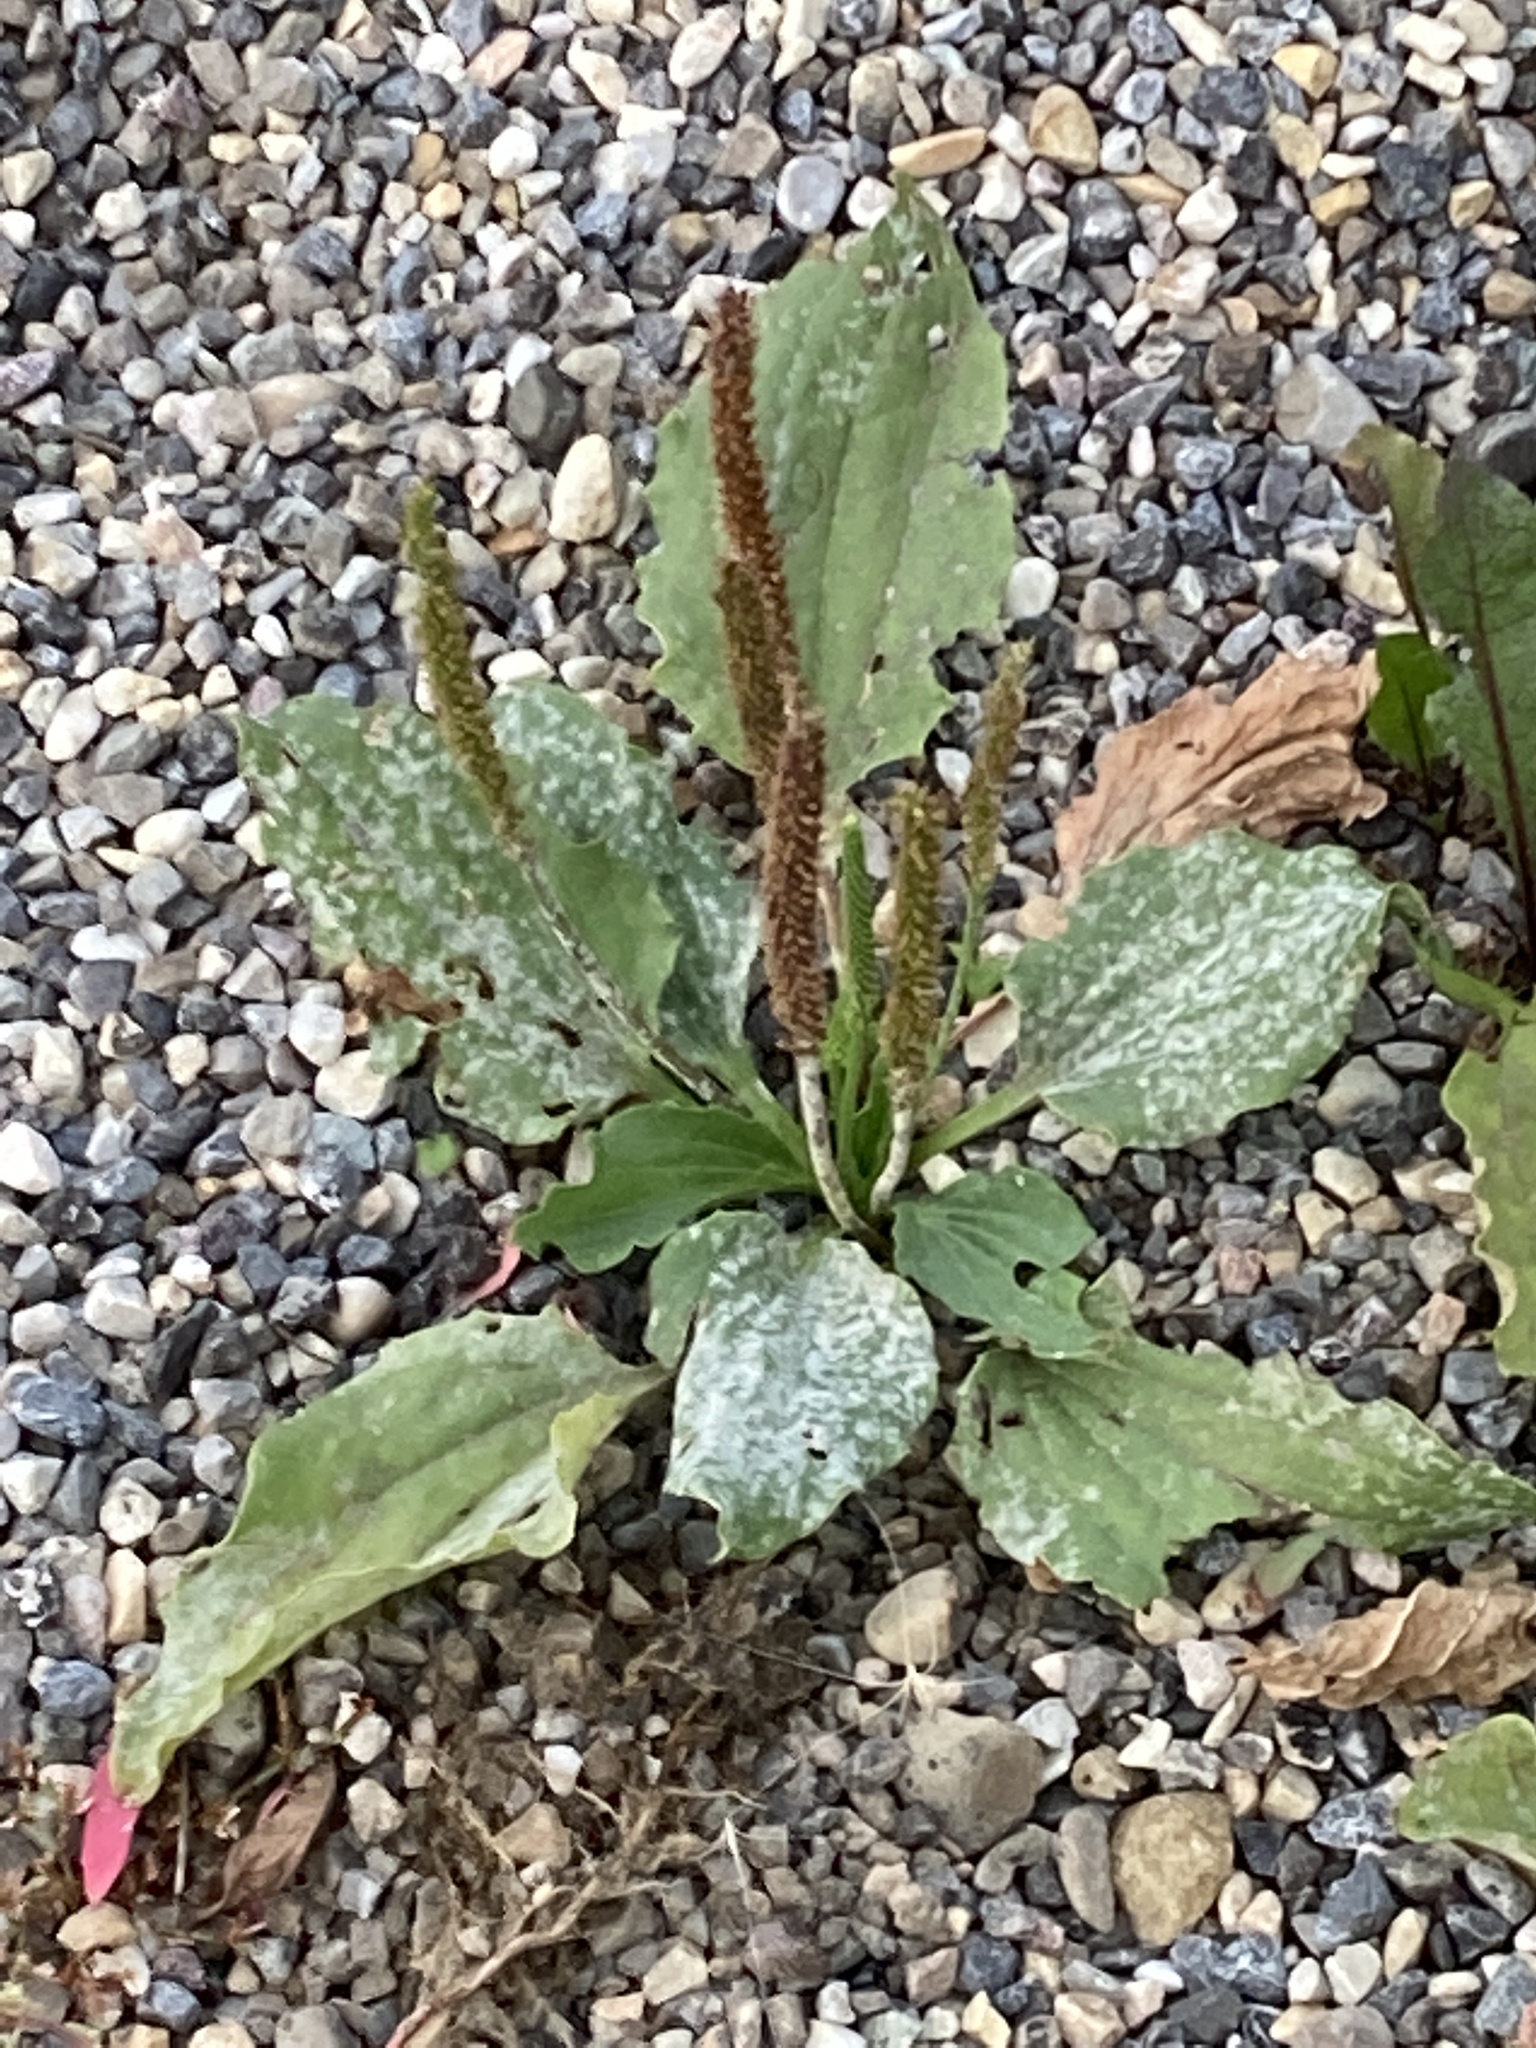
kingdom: Plantae
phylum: Tracheophyta
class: Magnoliopsida
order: Lamiales
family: Plantaginaceae
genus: Plantago
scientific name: Plantago major
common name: Common plantain
